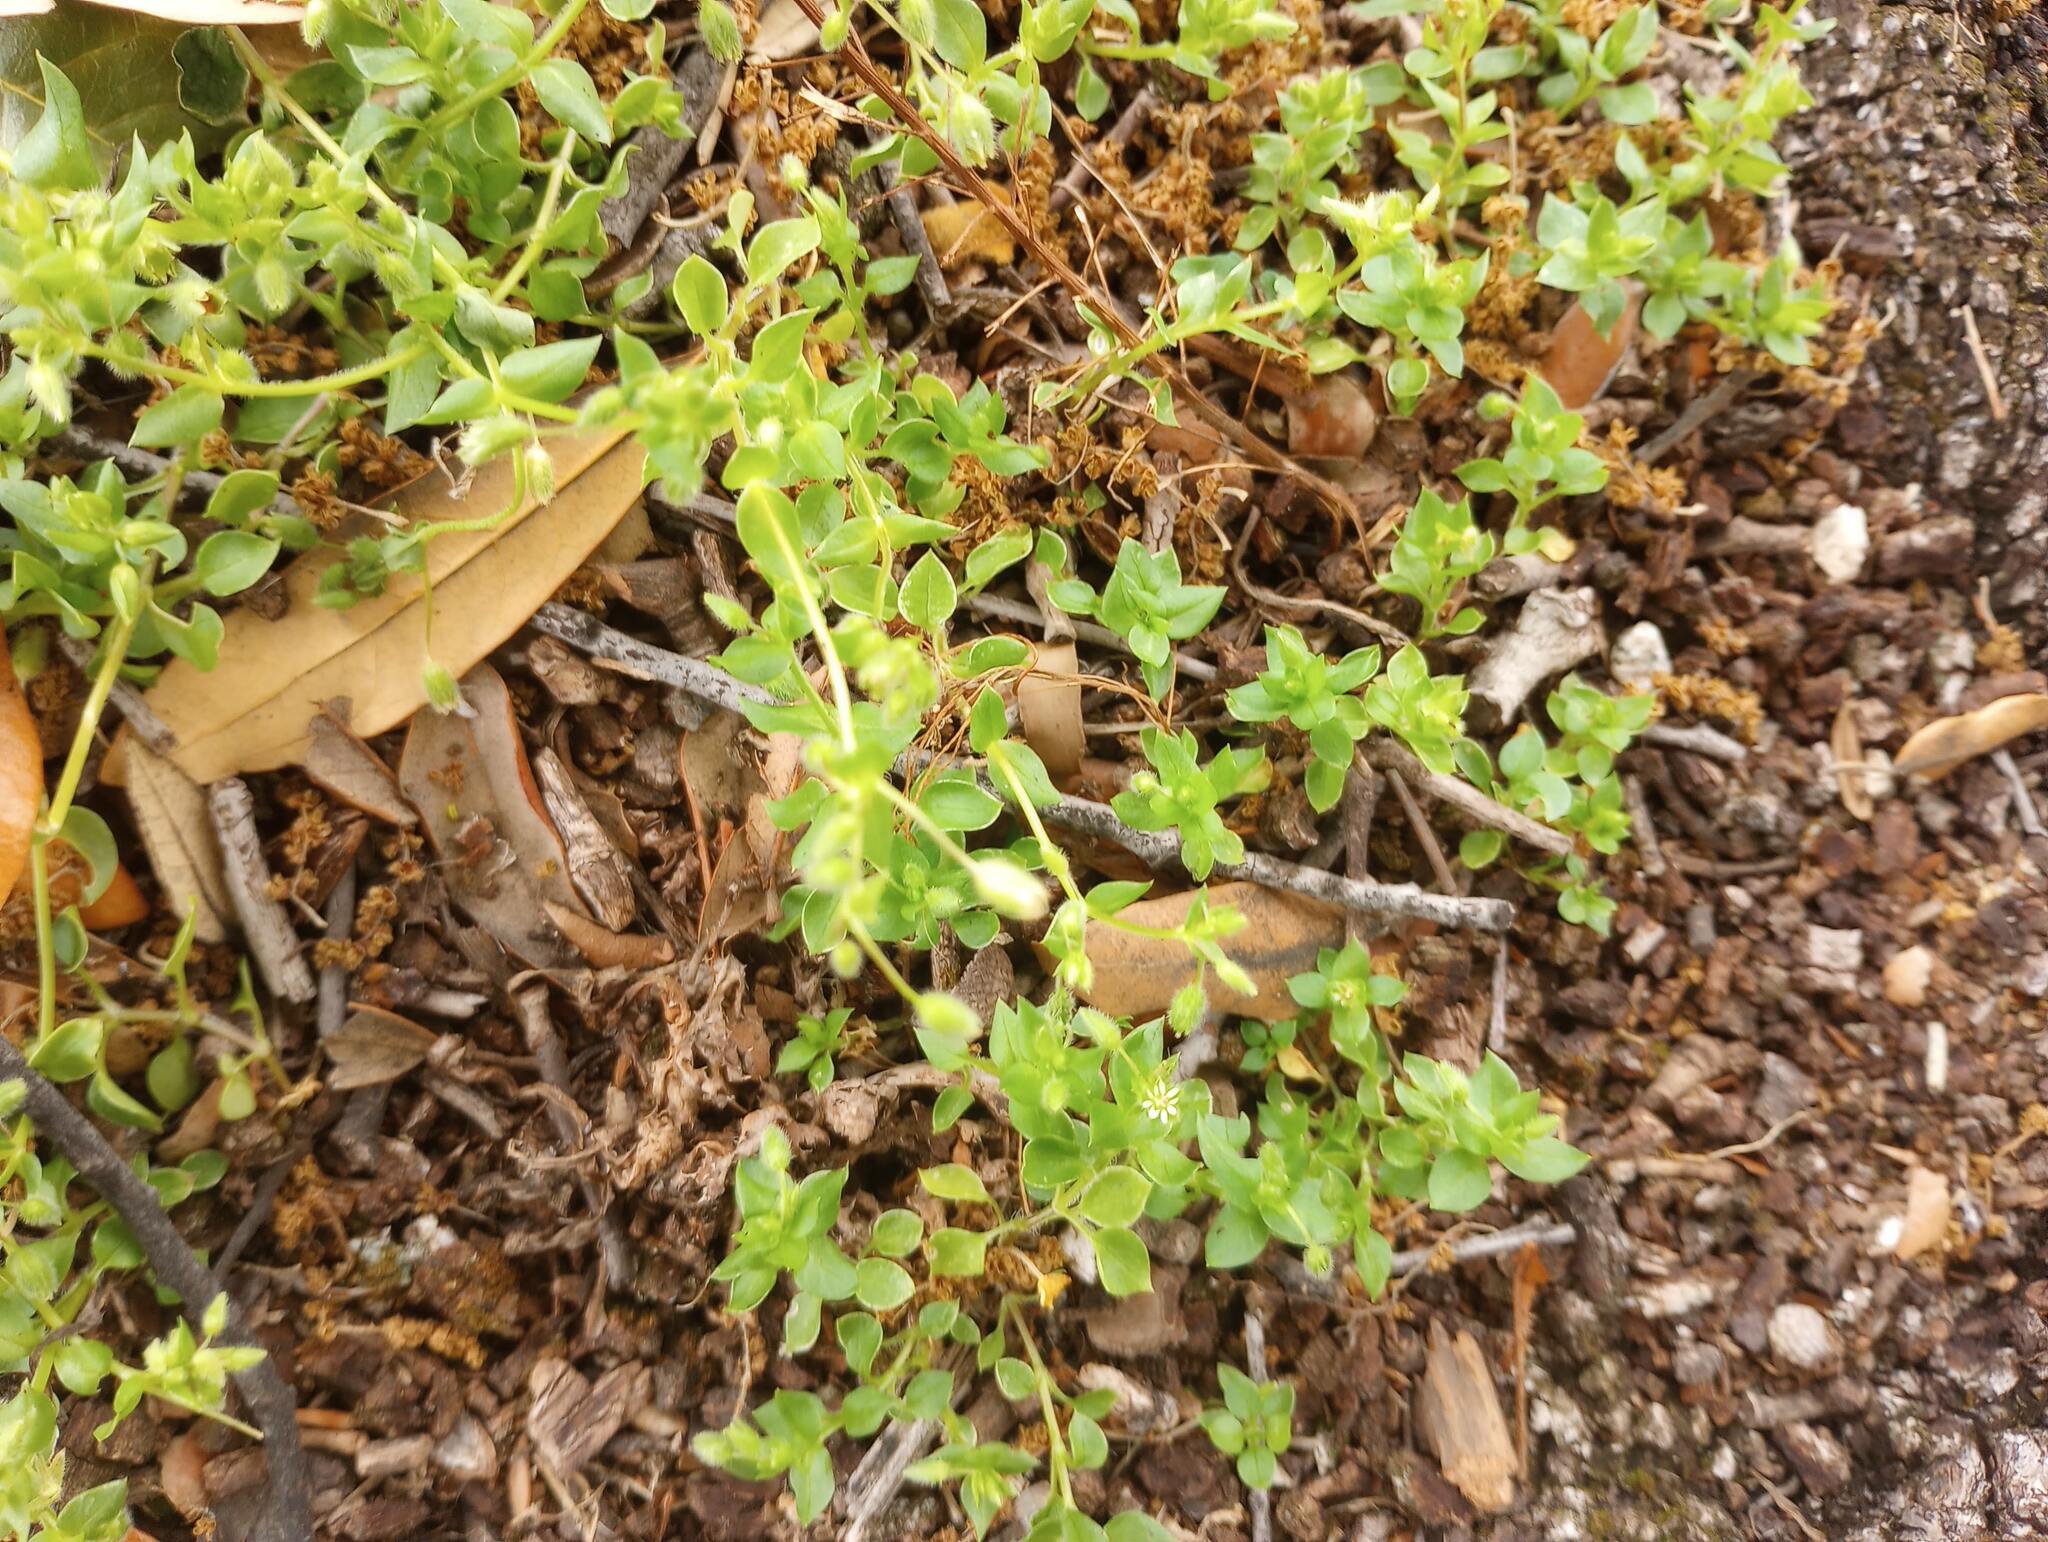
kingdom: Plantae
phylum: Tracheophyta
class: Magnoliopsida
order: Caryophyllales
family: Caryophyllaceae
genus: Stellaria
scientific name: Stellaria media
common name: Common chickweed
